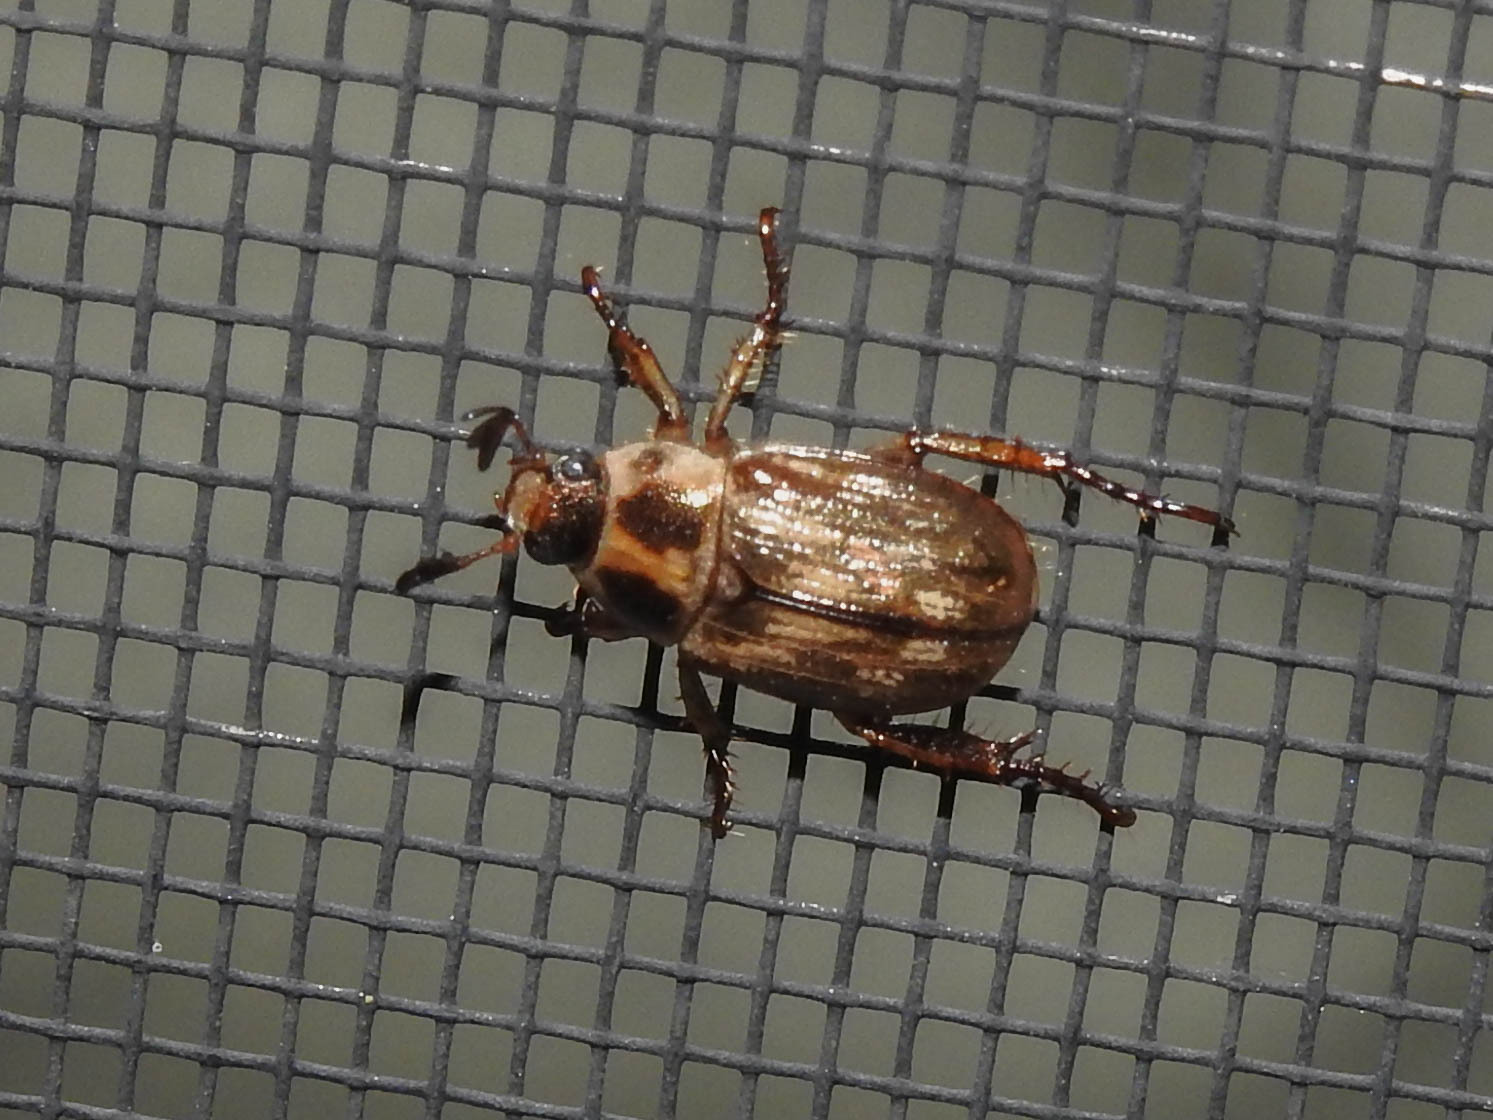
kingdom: Animalia
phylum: Arthropoda
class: Insecta
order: Coleoptera
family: Scarabaeidae
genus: Exomala
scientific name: Exomala orientalis
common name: Oriental beetle
